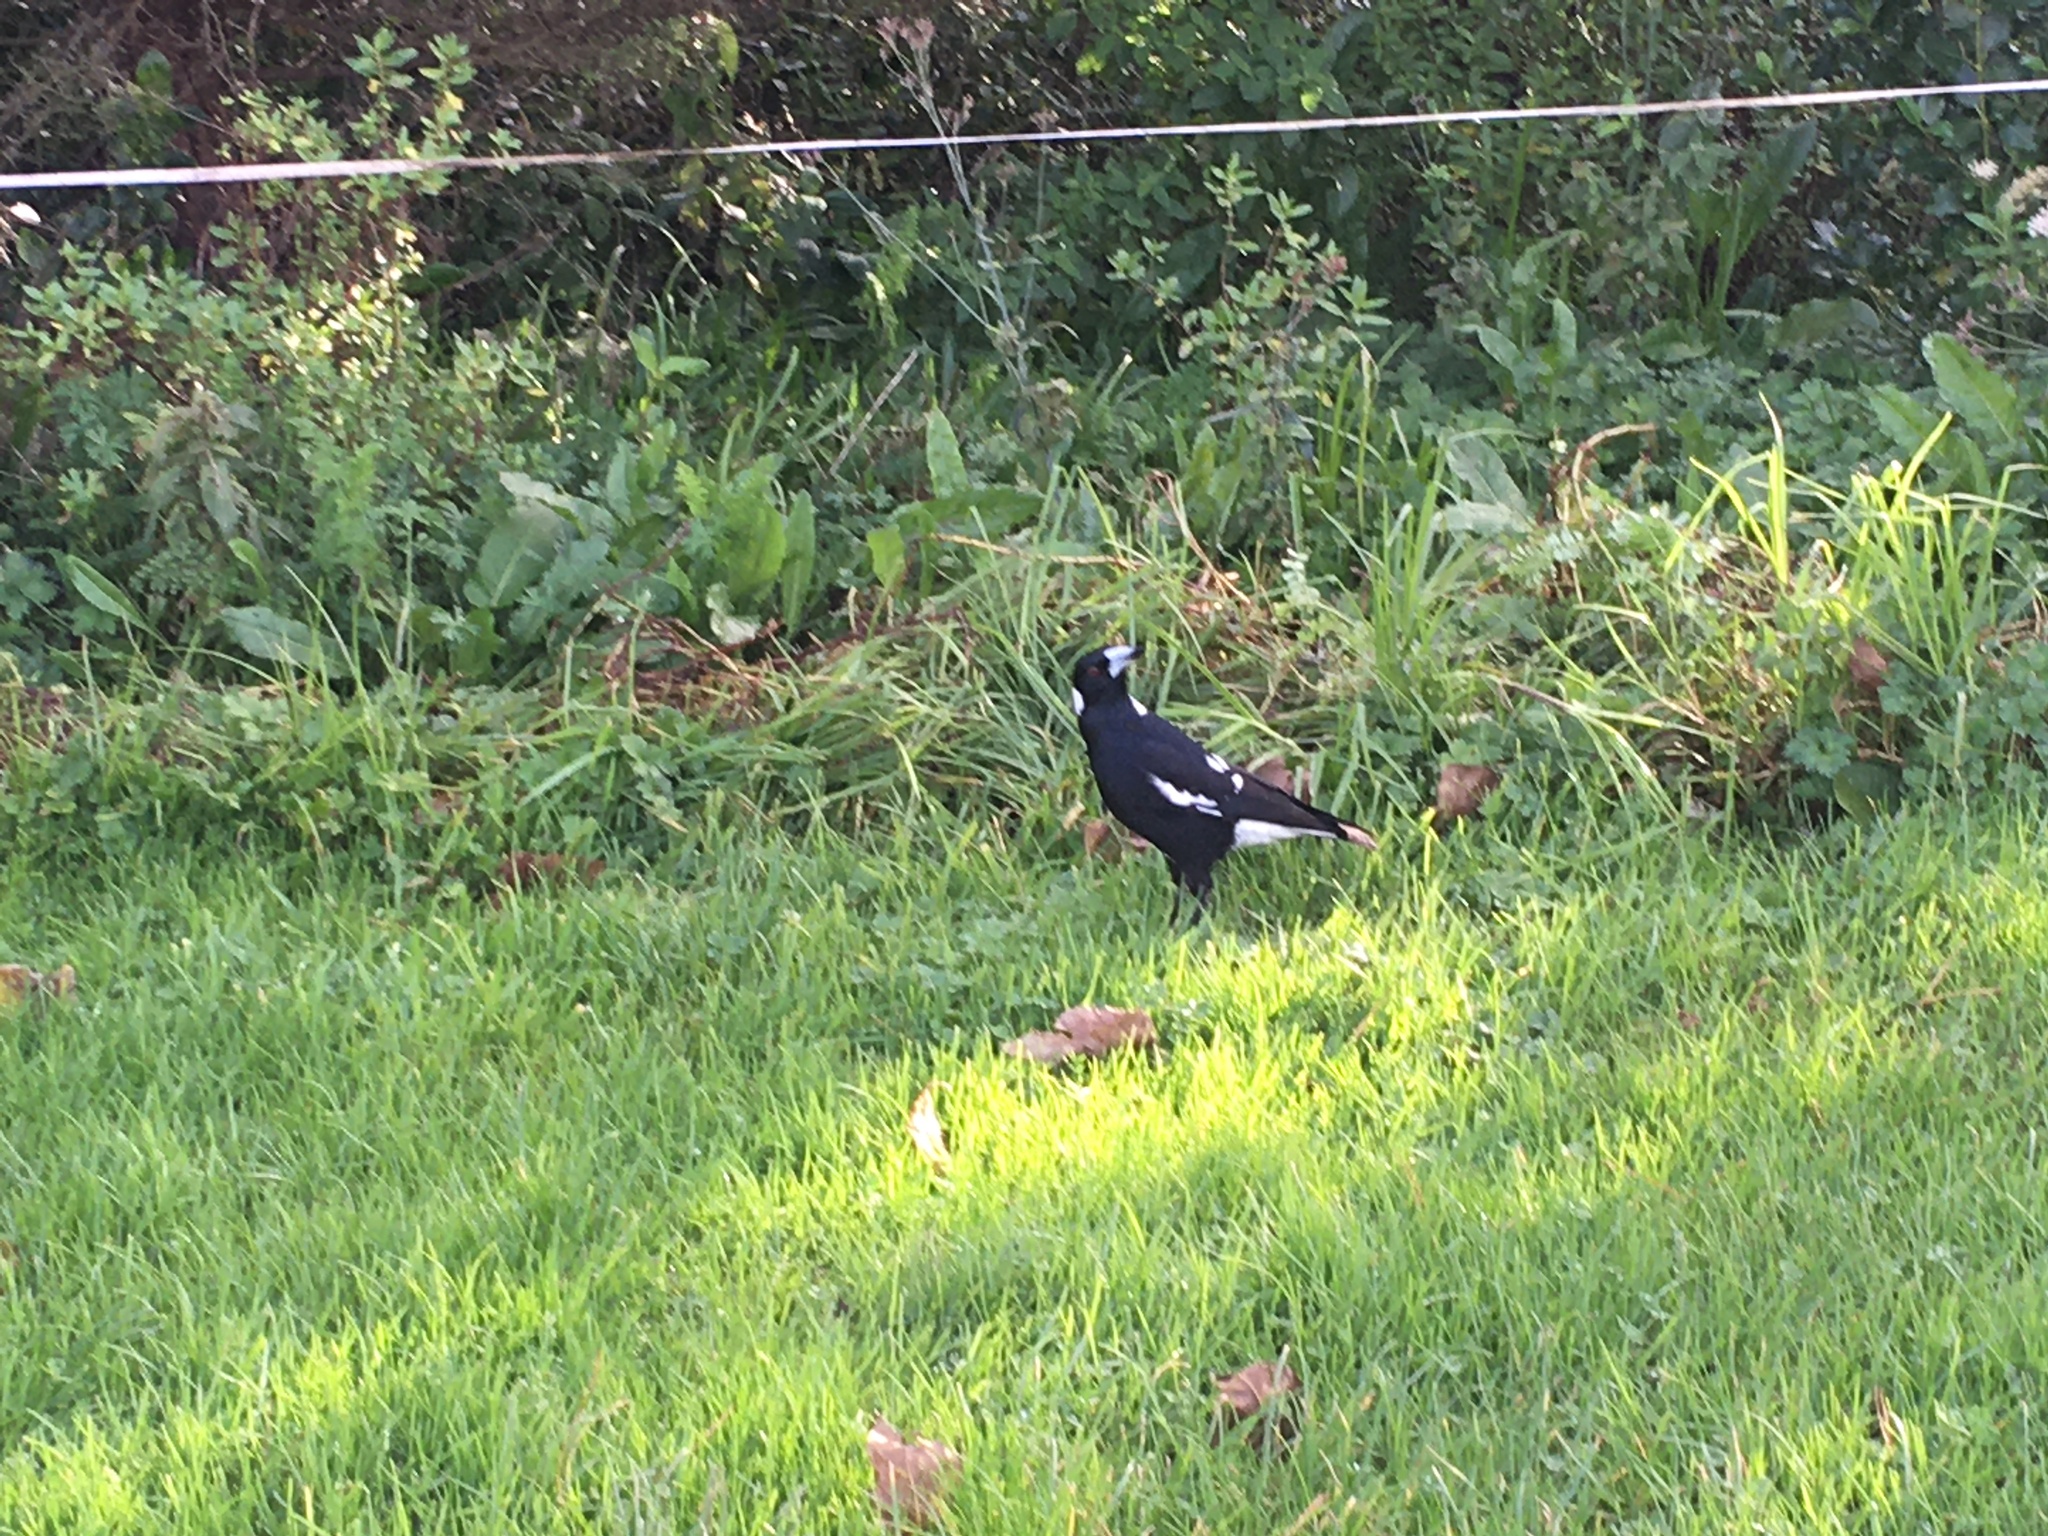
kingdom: Animalia
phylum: Chordata
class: Aves
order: Passeriformes
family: Cracticidae
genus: Gymnorhina
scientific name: Gymnorhina tibicen
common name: Australian magpie
